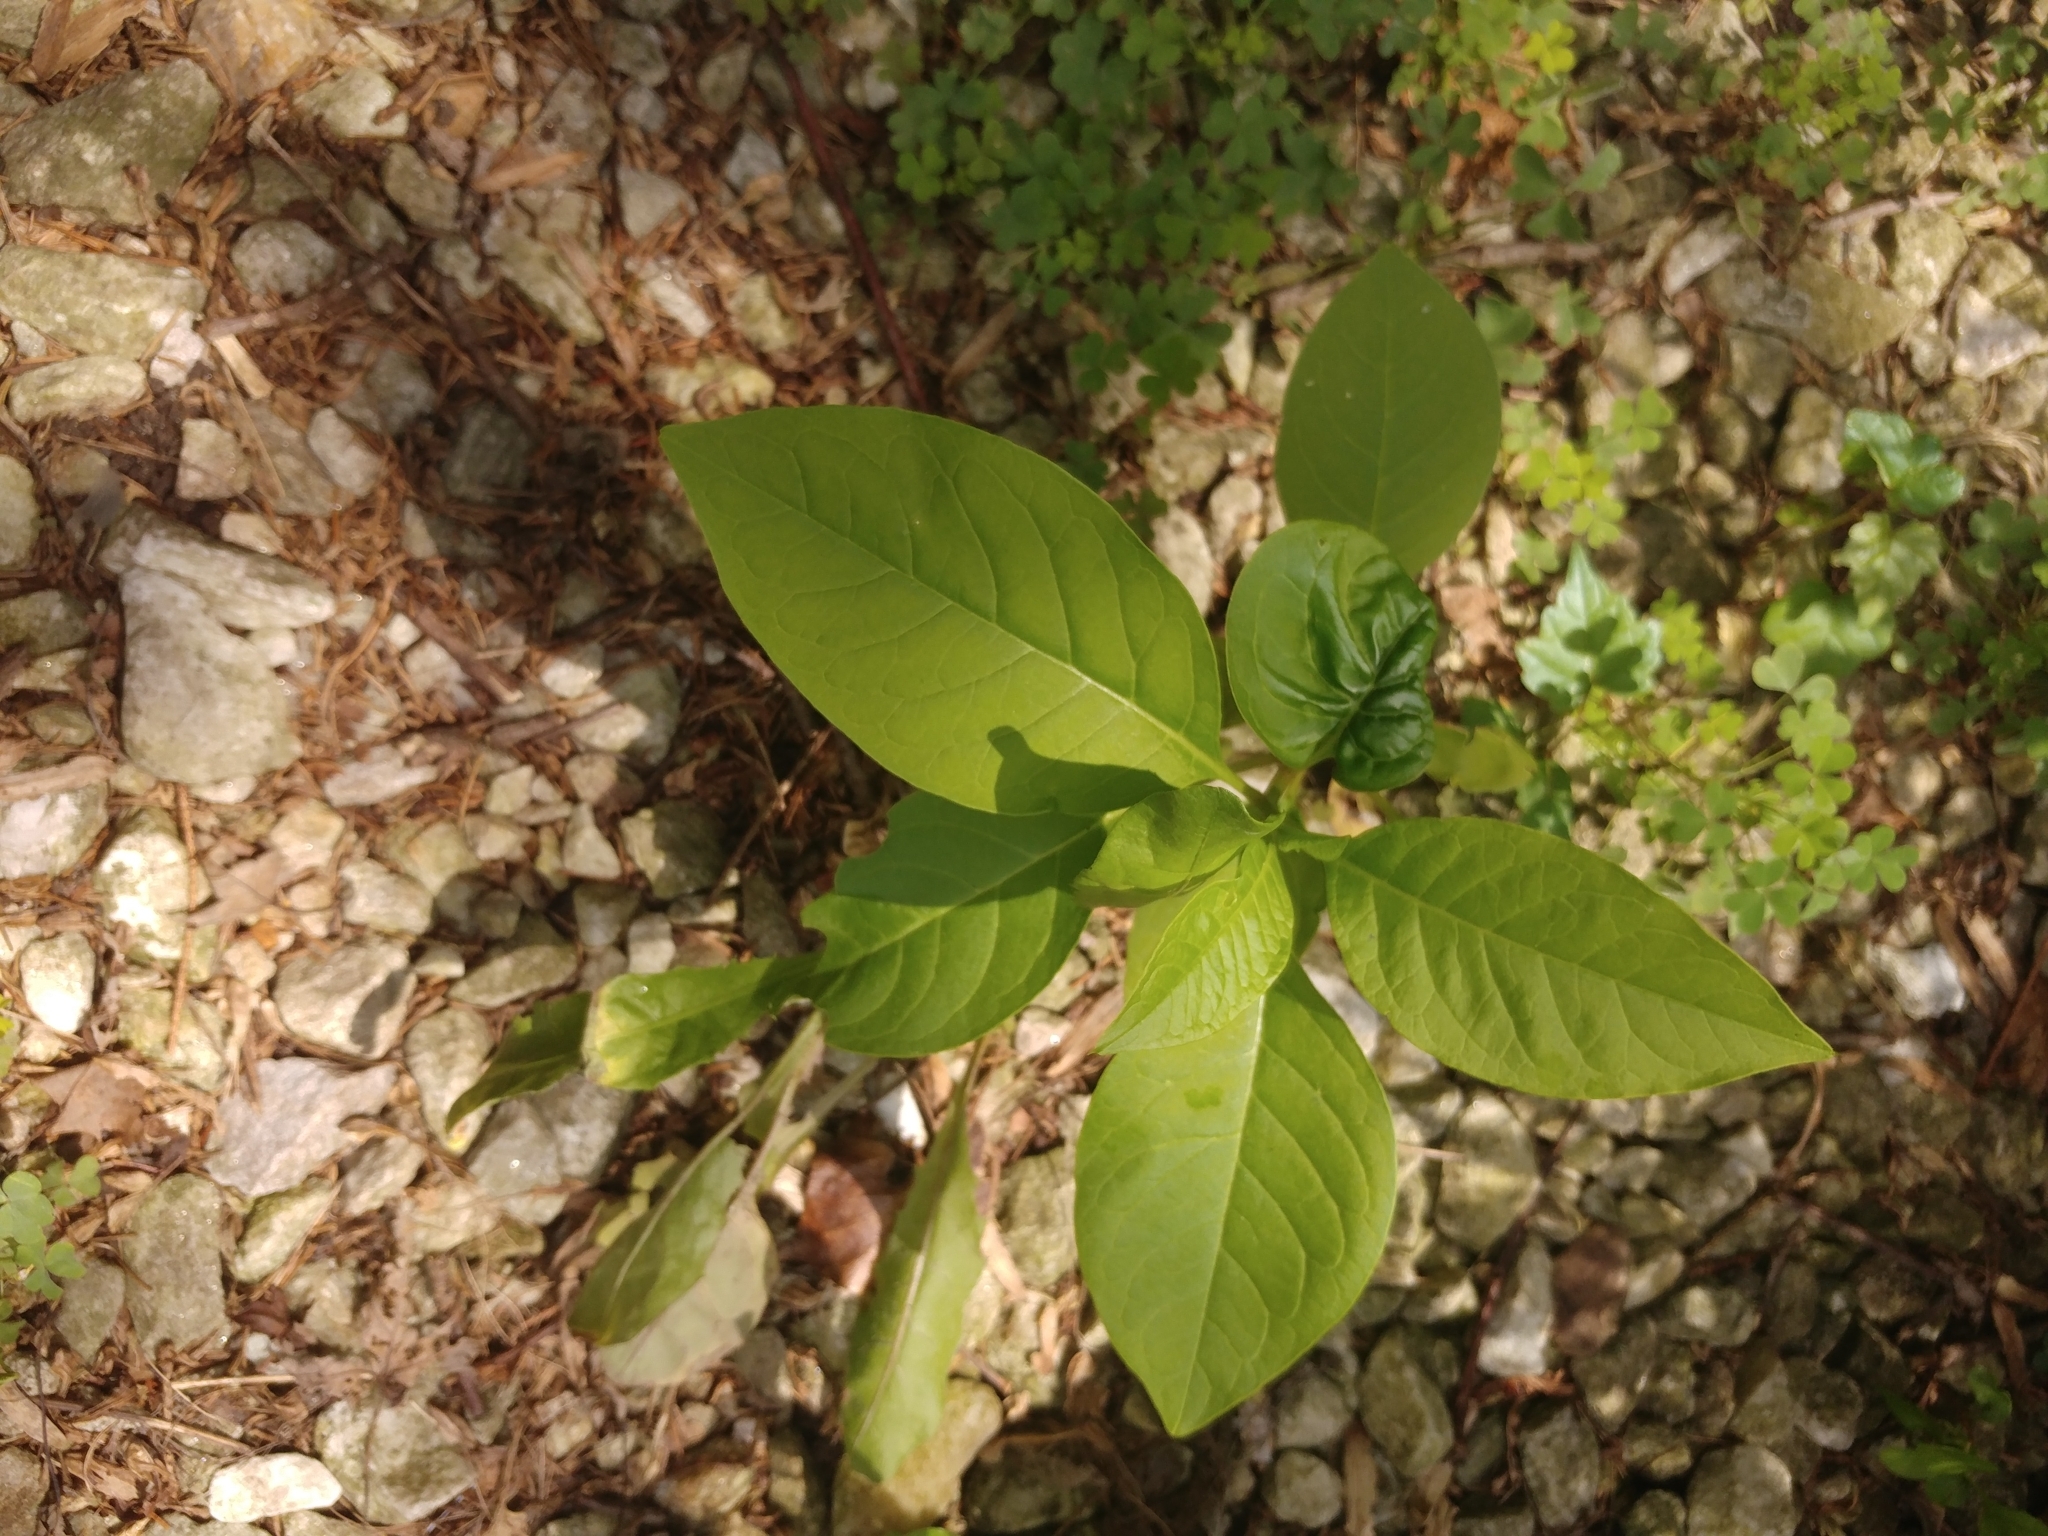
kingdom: Plantae
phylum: Tracheophyta
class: Magnoliopsida
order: Caryophyllales
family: Phytolaccaceae
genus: Phytolacca
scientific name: Phytolacca americana
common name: American pokeweed
